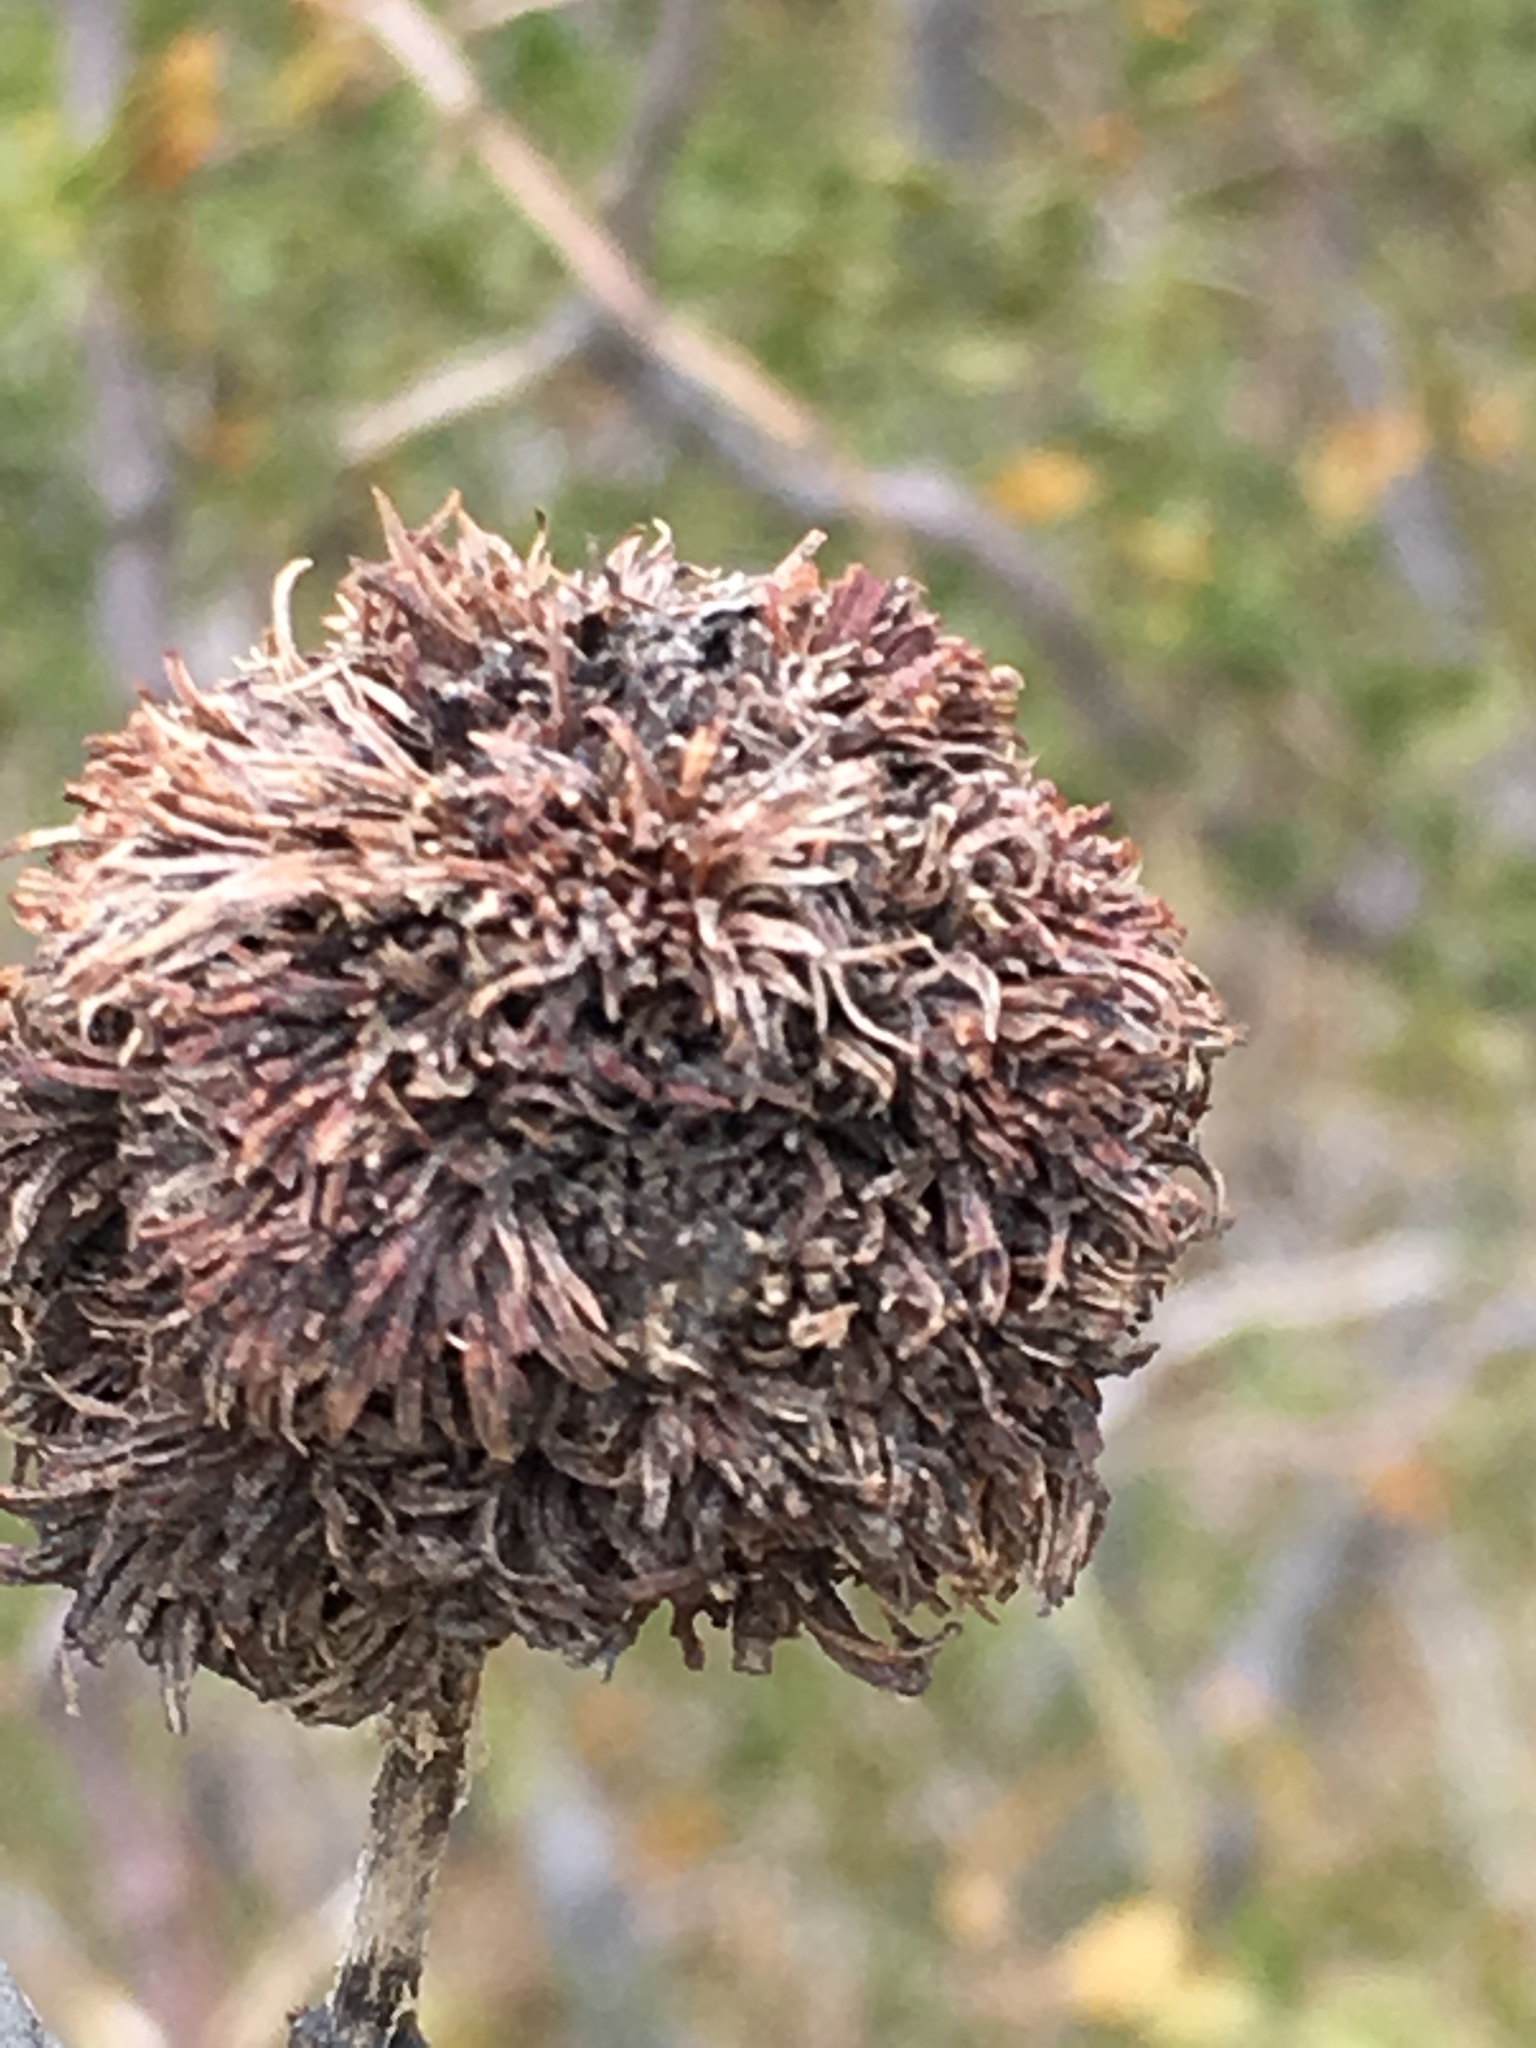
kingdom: Animalia
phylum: Arthropoda
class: Insecta
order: Diptera
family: Cecidomyiidae
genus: Asphondylia
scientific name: Asphondylia auripila
